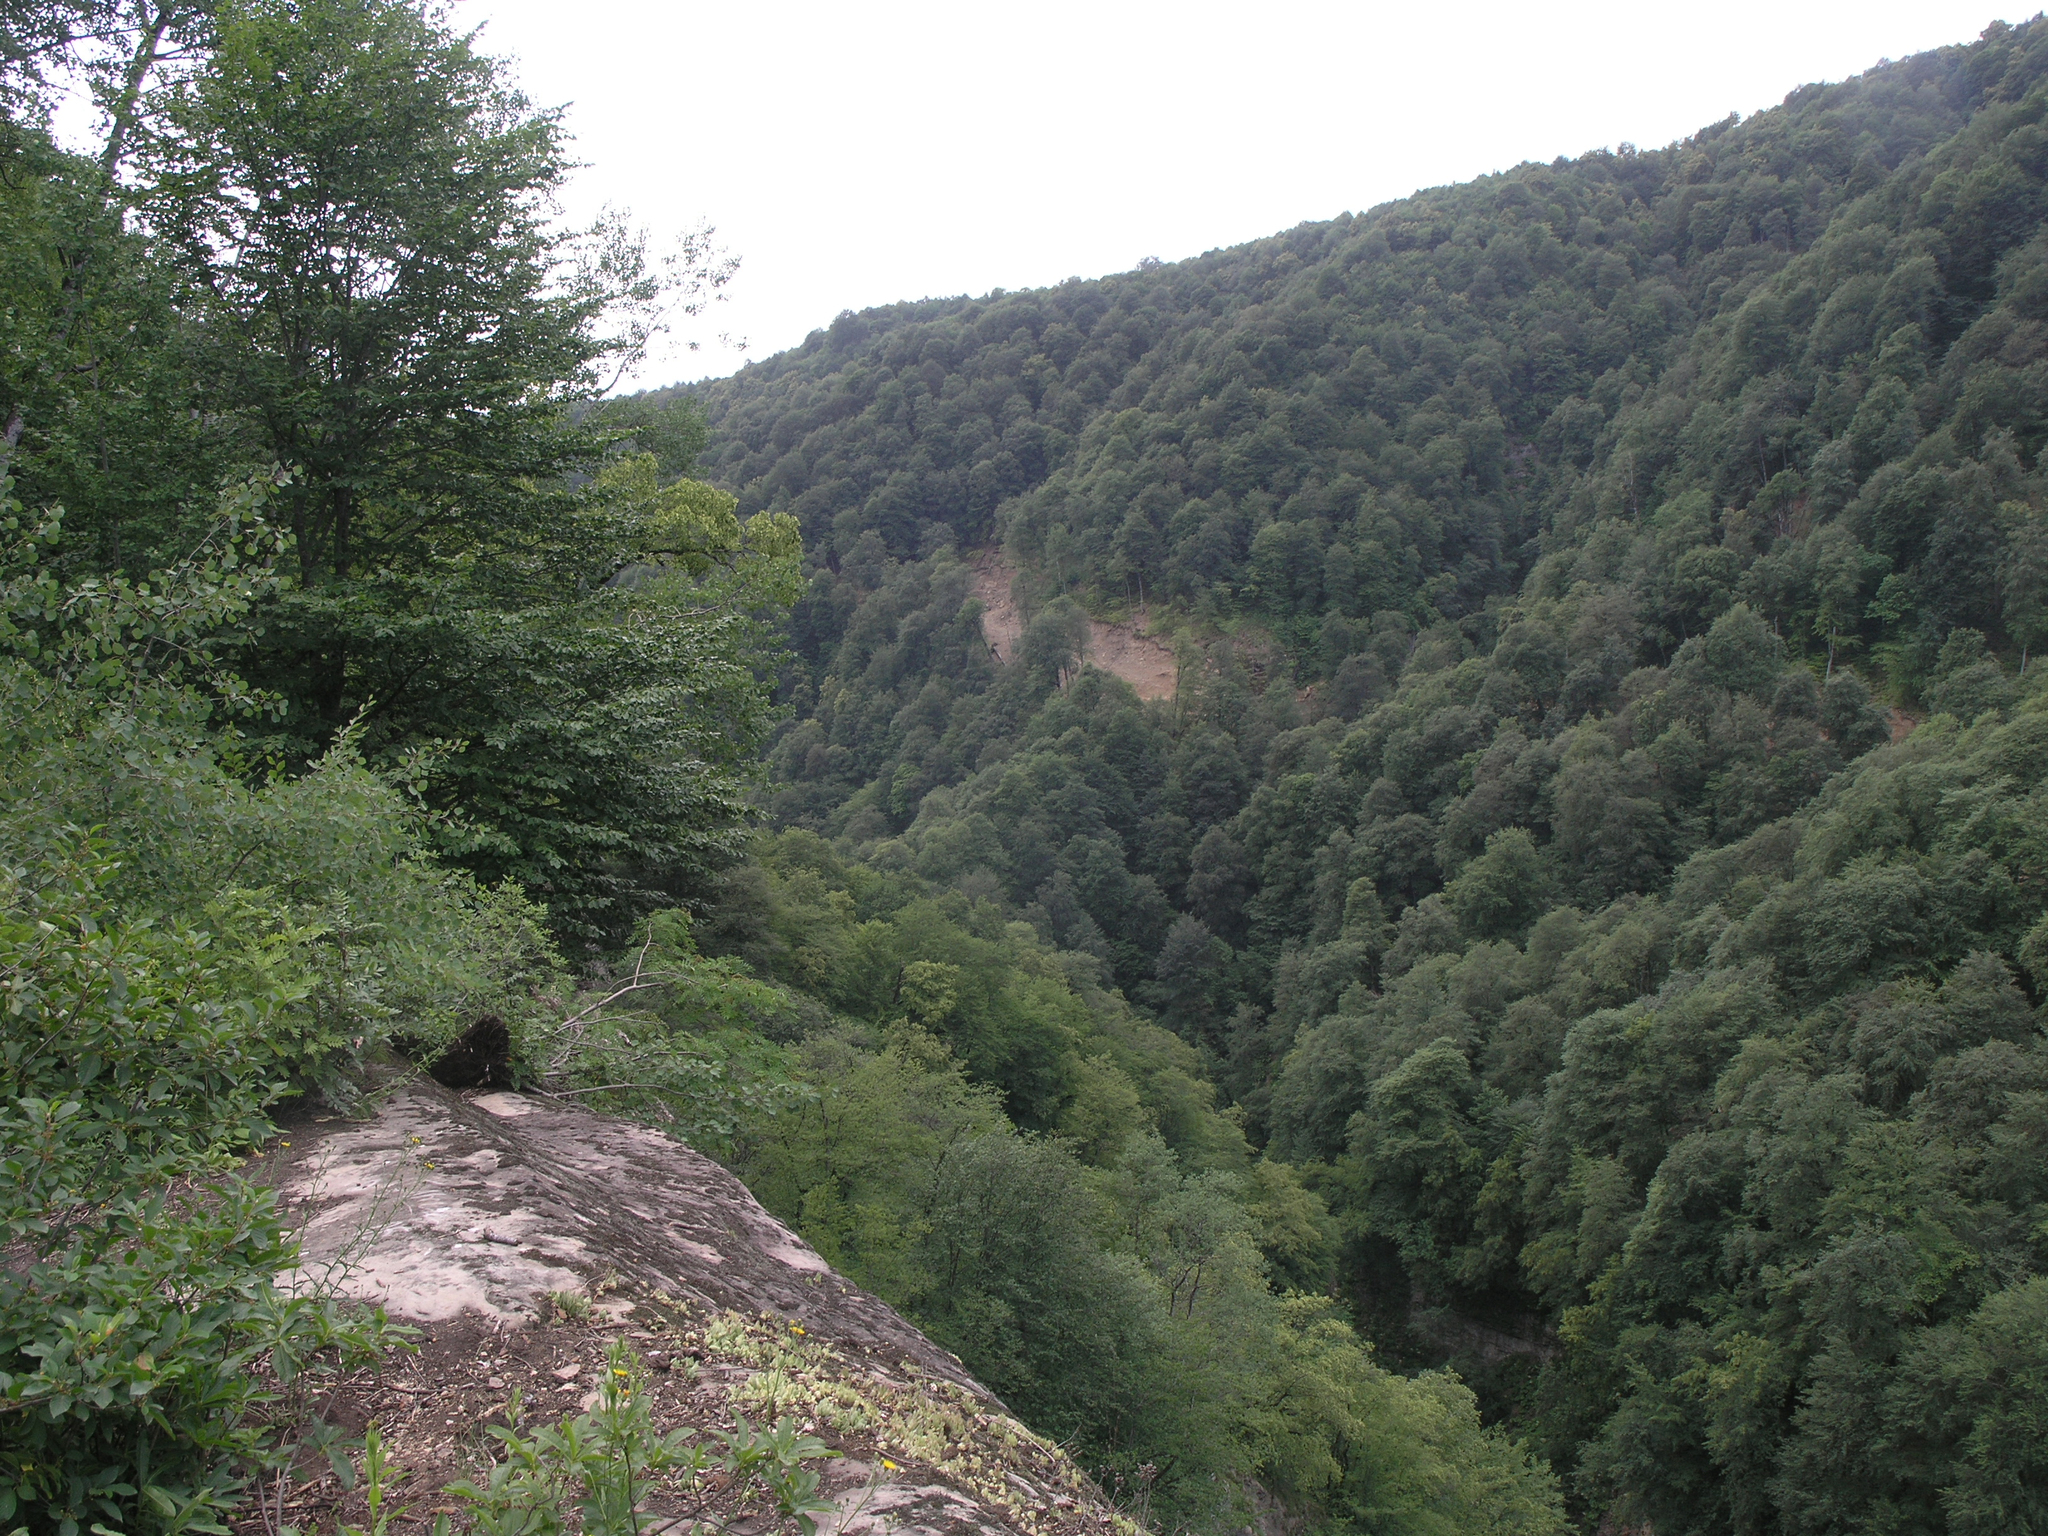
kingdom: Plantae
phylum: Tracheophyta
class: Magnoliopsida
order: Fagales
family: Fagaceae
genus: Fagus
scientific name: Fagus orientalis
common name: Oriental beech
